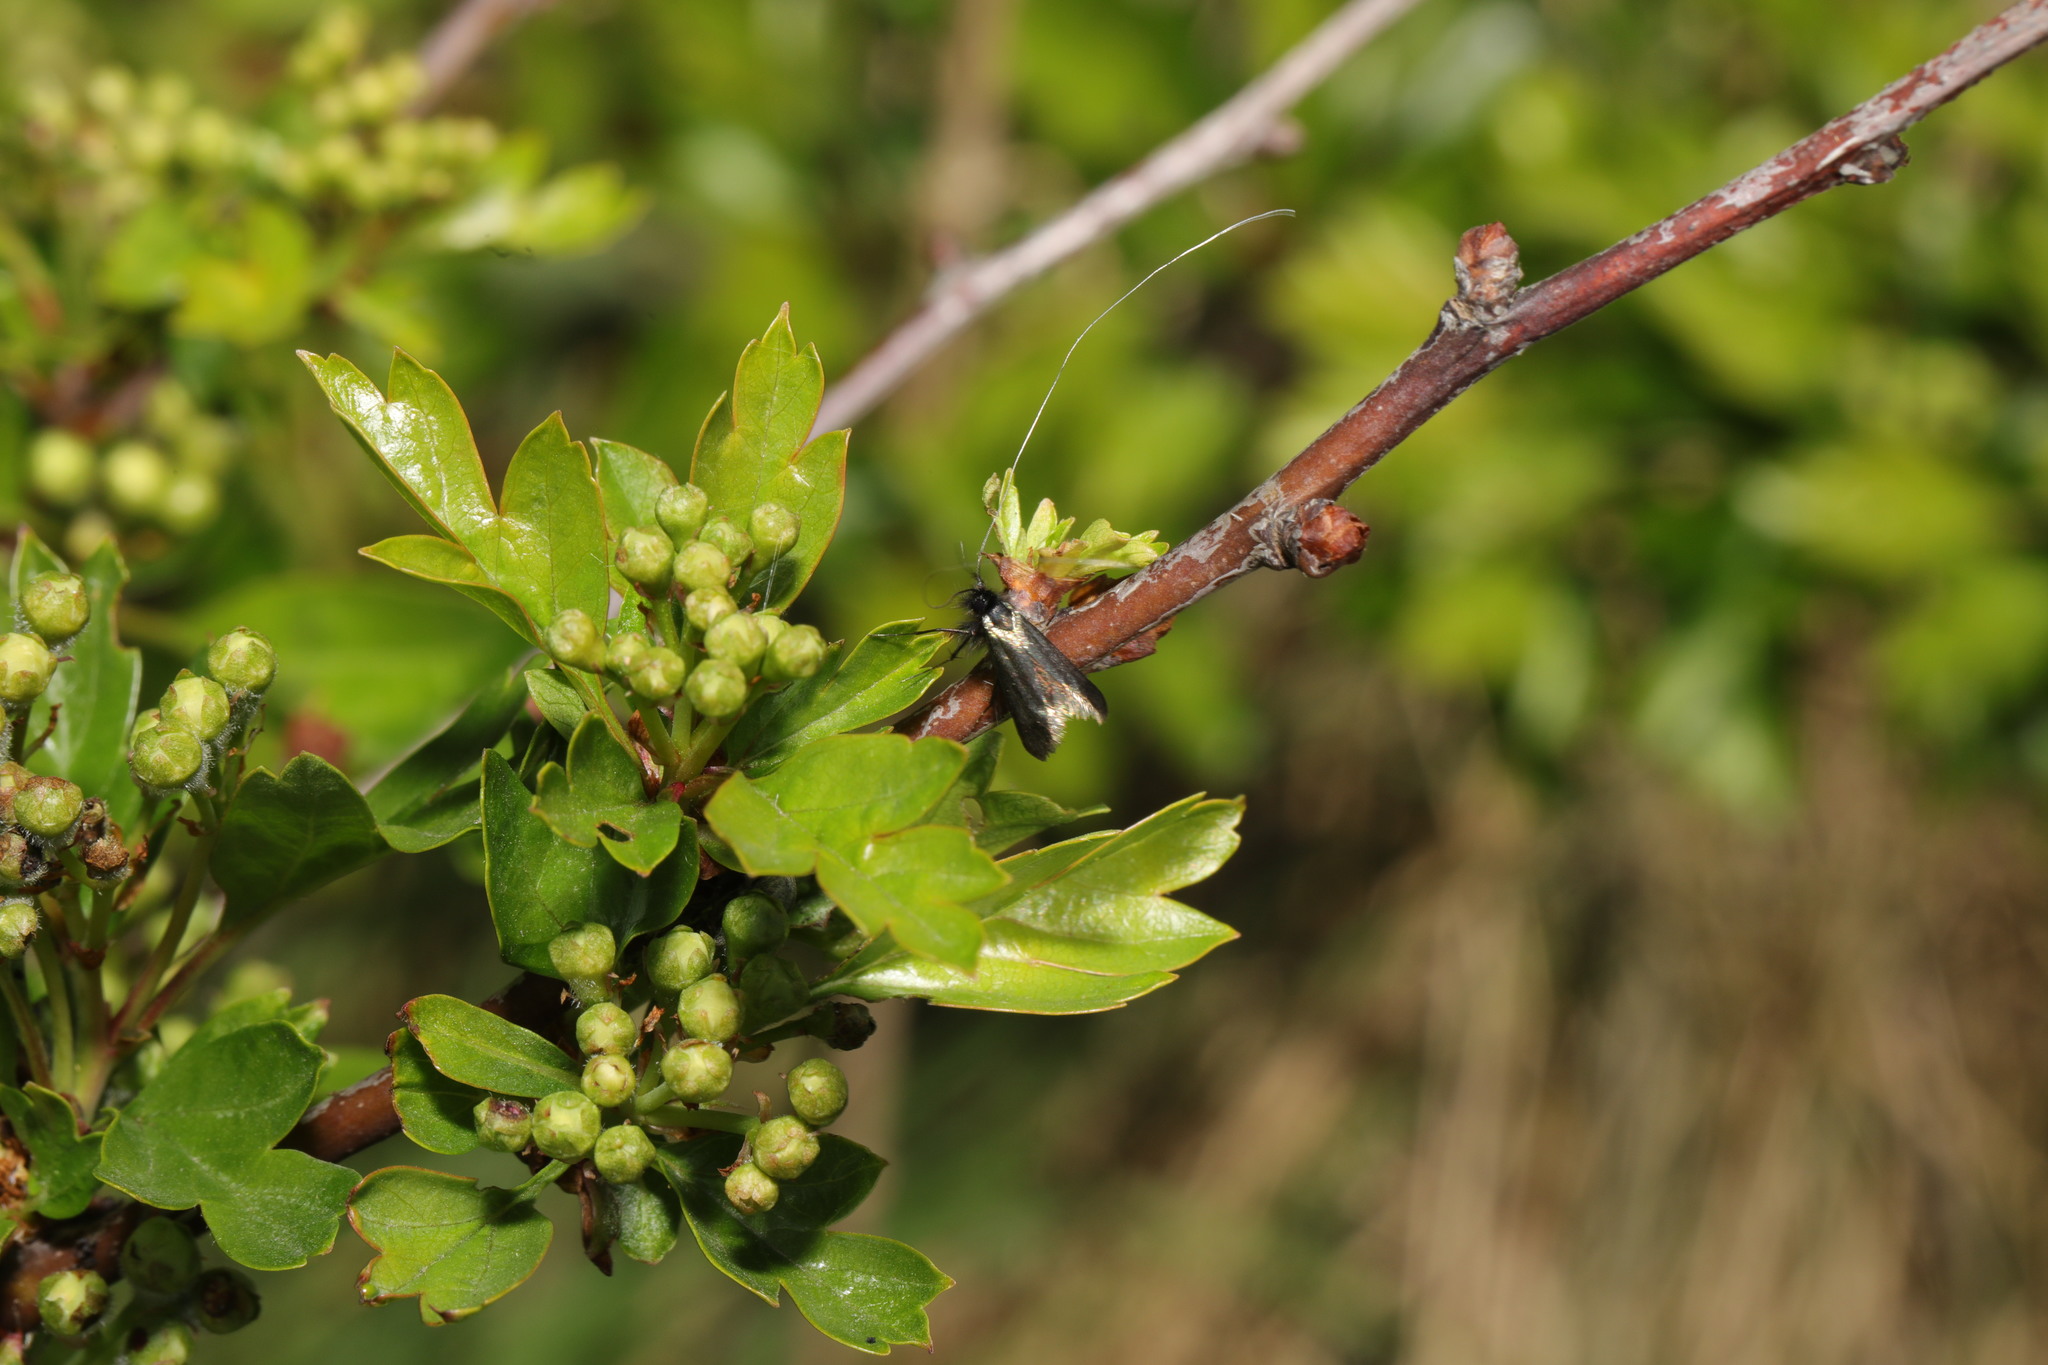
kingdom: Animalia
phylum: Arthropoda
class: Insecta
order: Lepidoptera
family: Adelidae
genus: Adela
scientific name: Adela viridella
